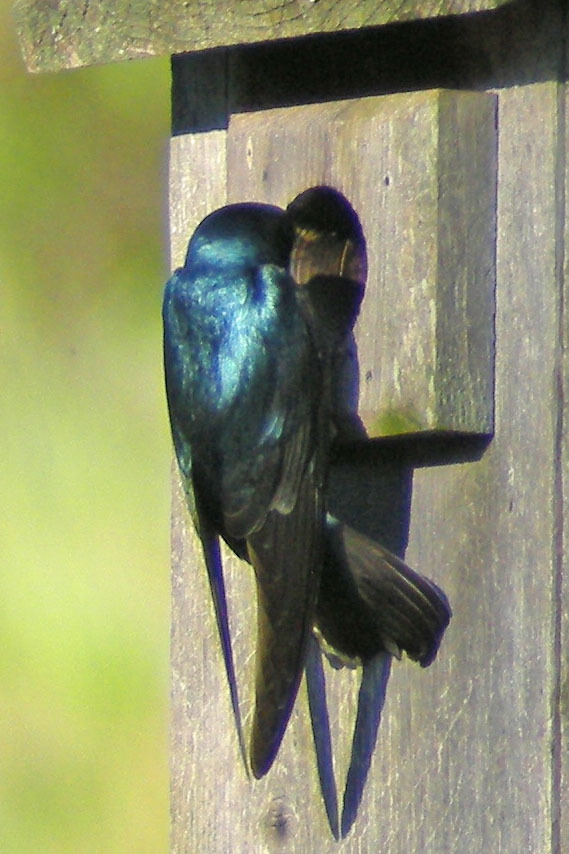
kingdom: Animalia
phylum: Chordata
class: Aves
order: Passeriformes
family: Hirundinidae
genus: Tachycineta
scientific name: Tachycineta bicolor
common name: Tree swallow
